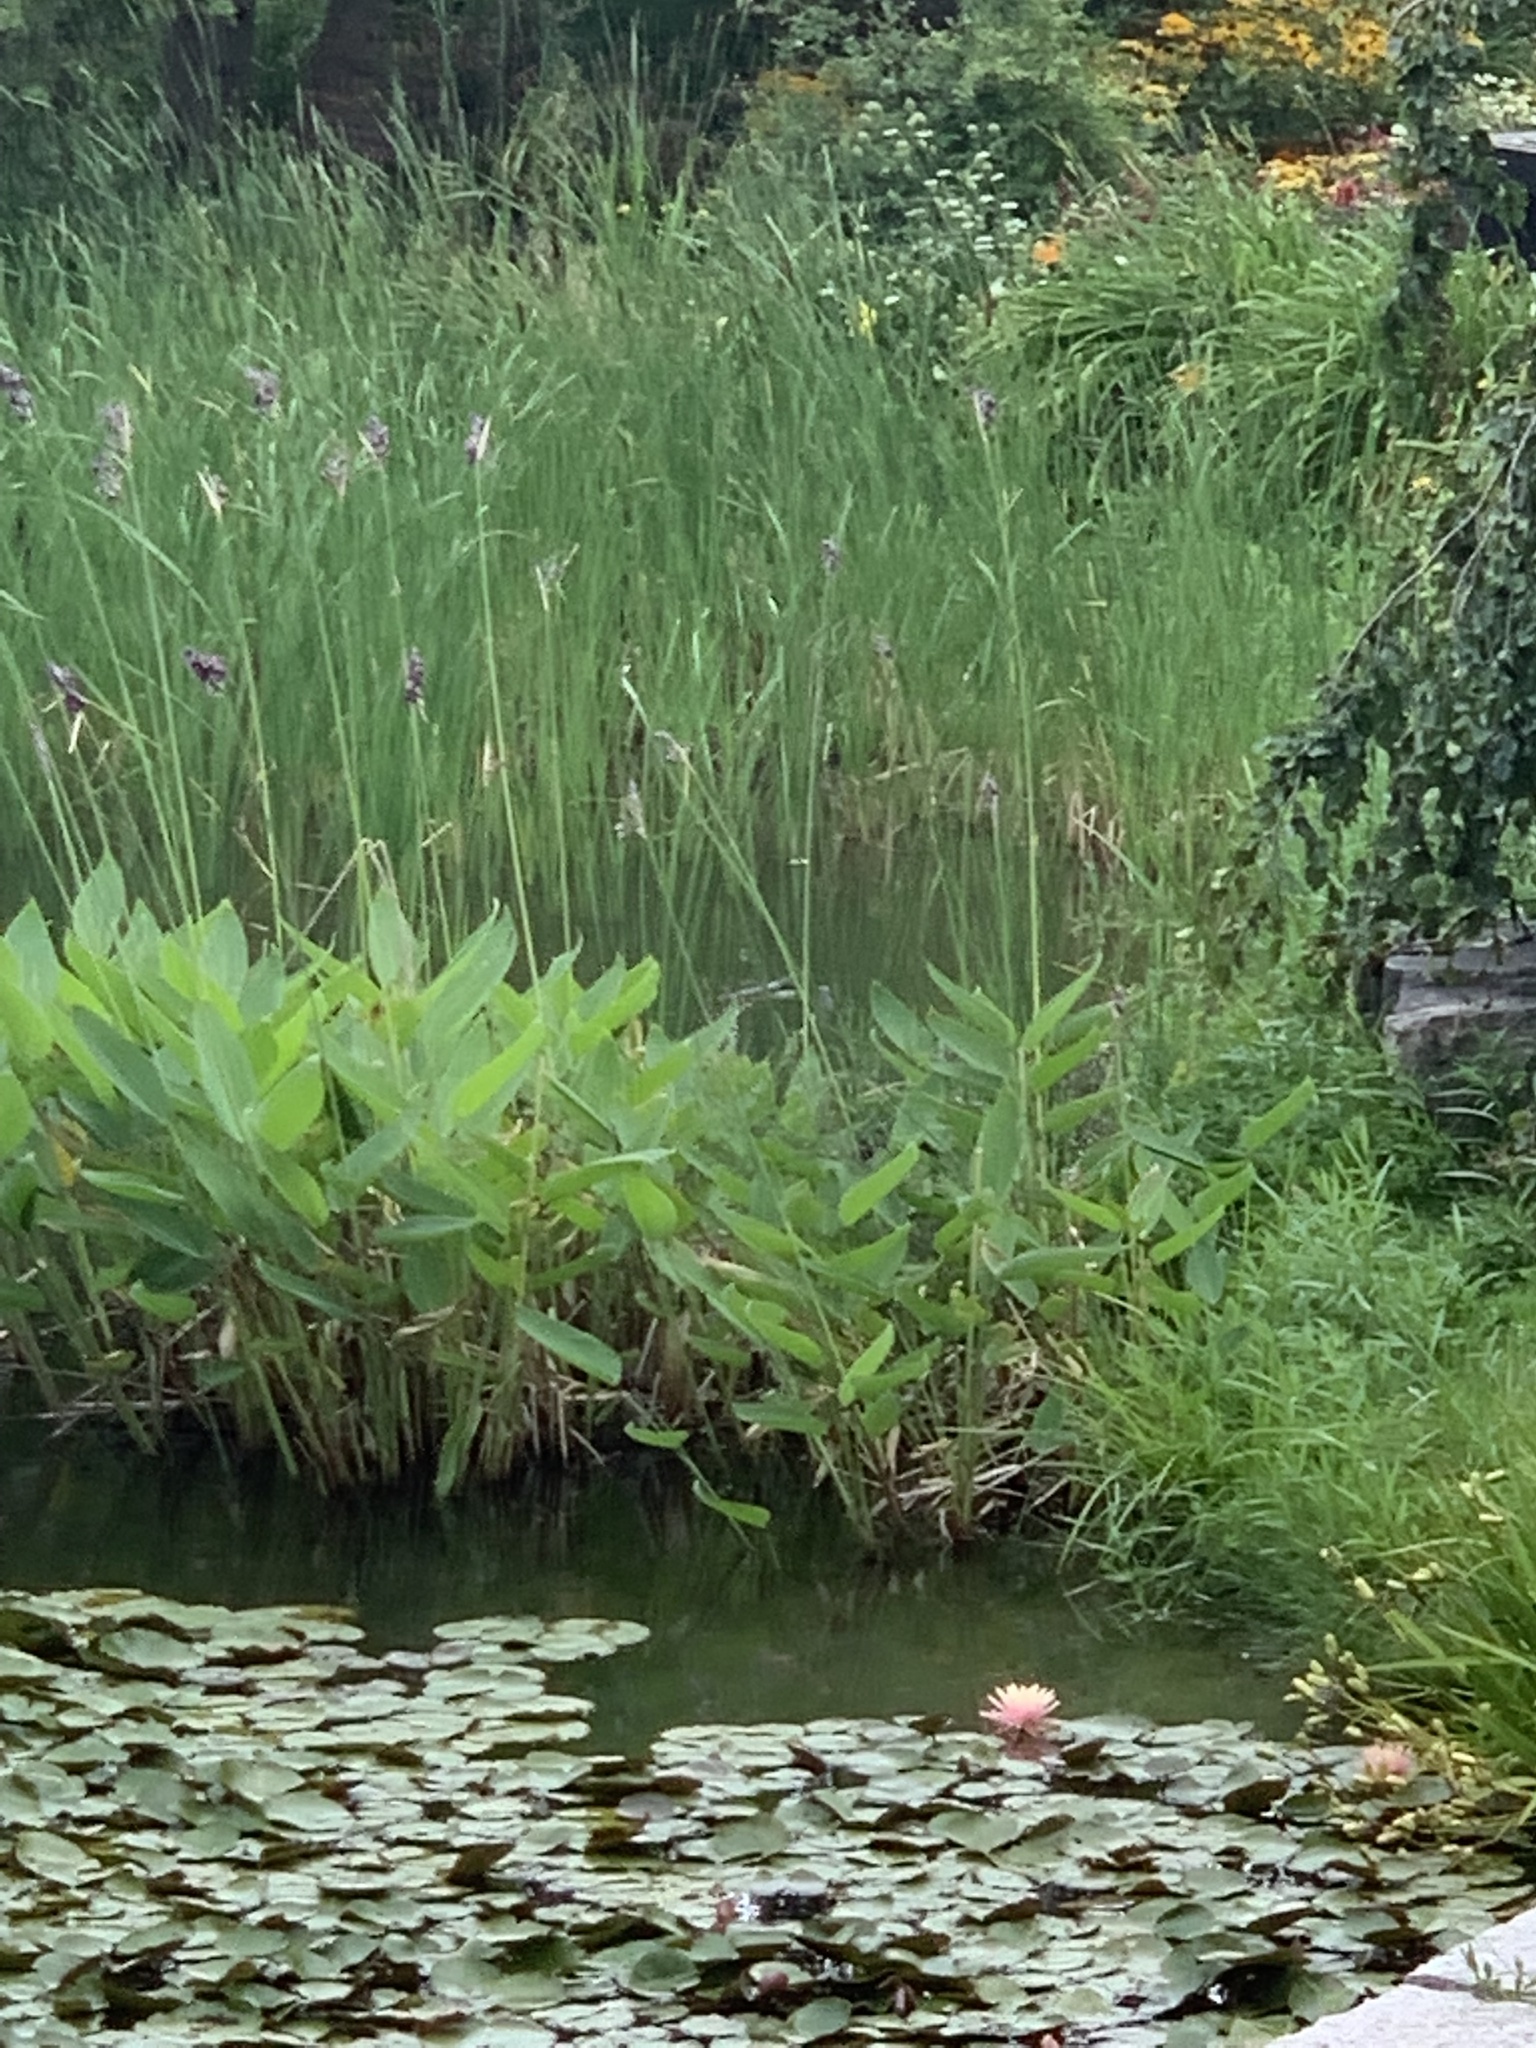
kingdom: Animalia
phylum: Chordata
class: Aves
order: Pelecaniformes
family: Ardeidae
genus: Ardea
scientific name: Ardea herodias
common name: Great blue heron
